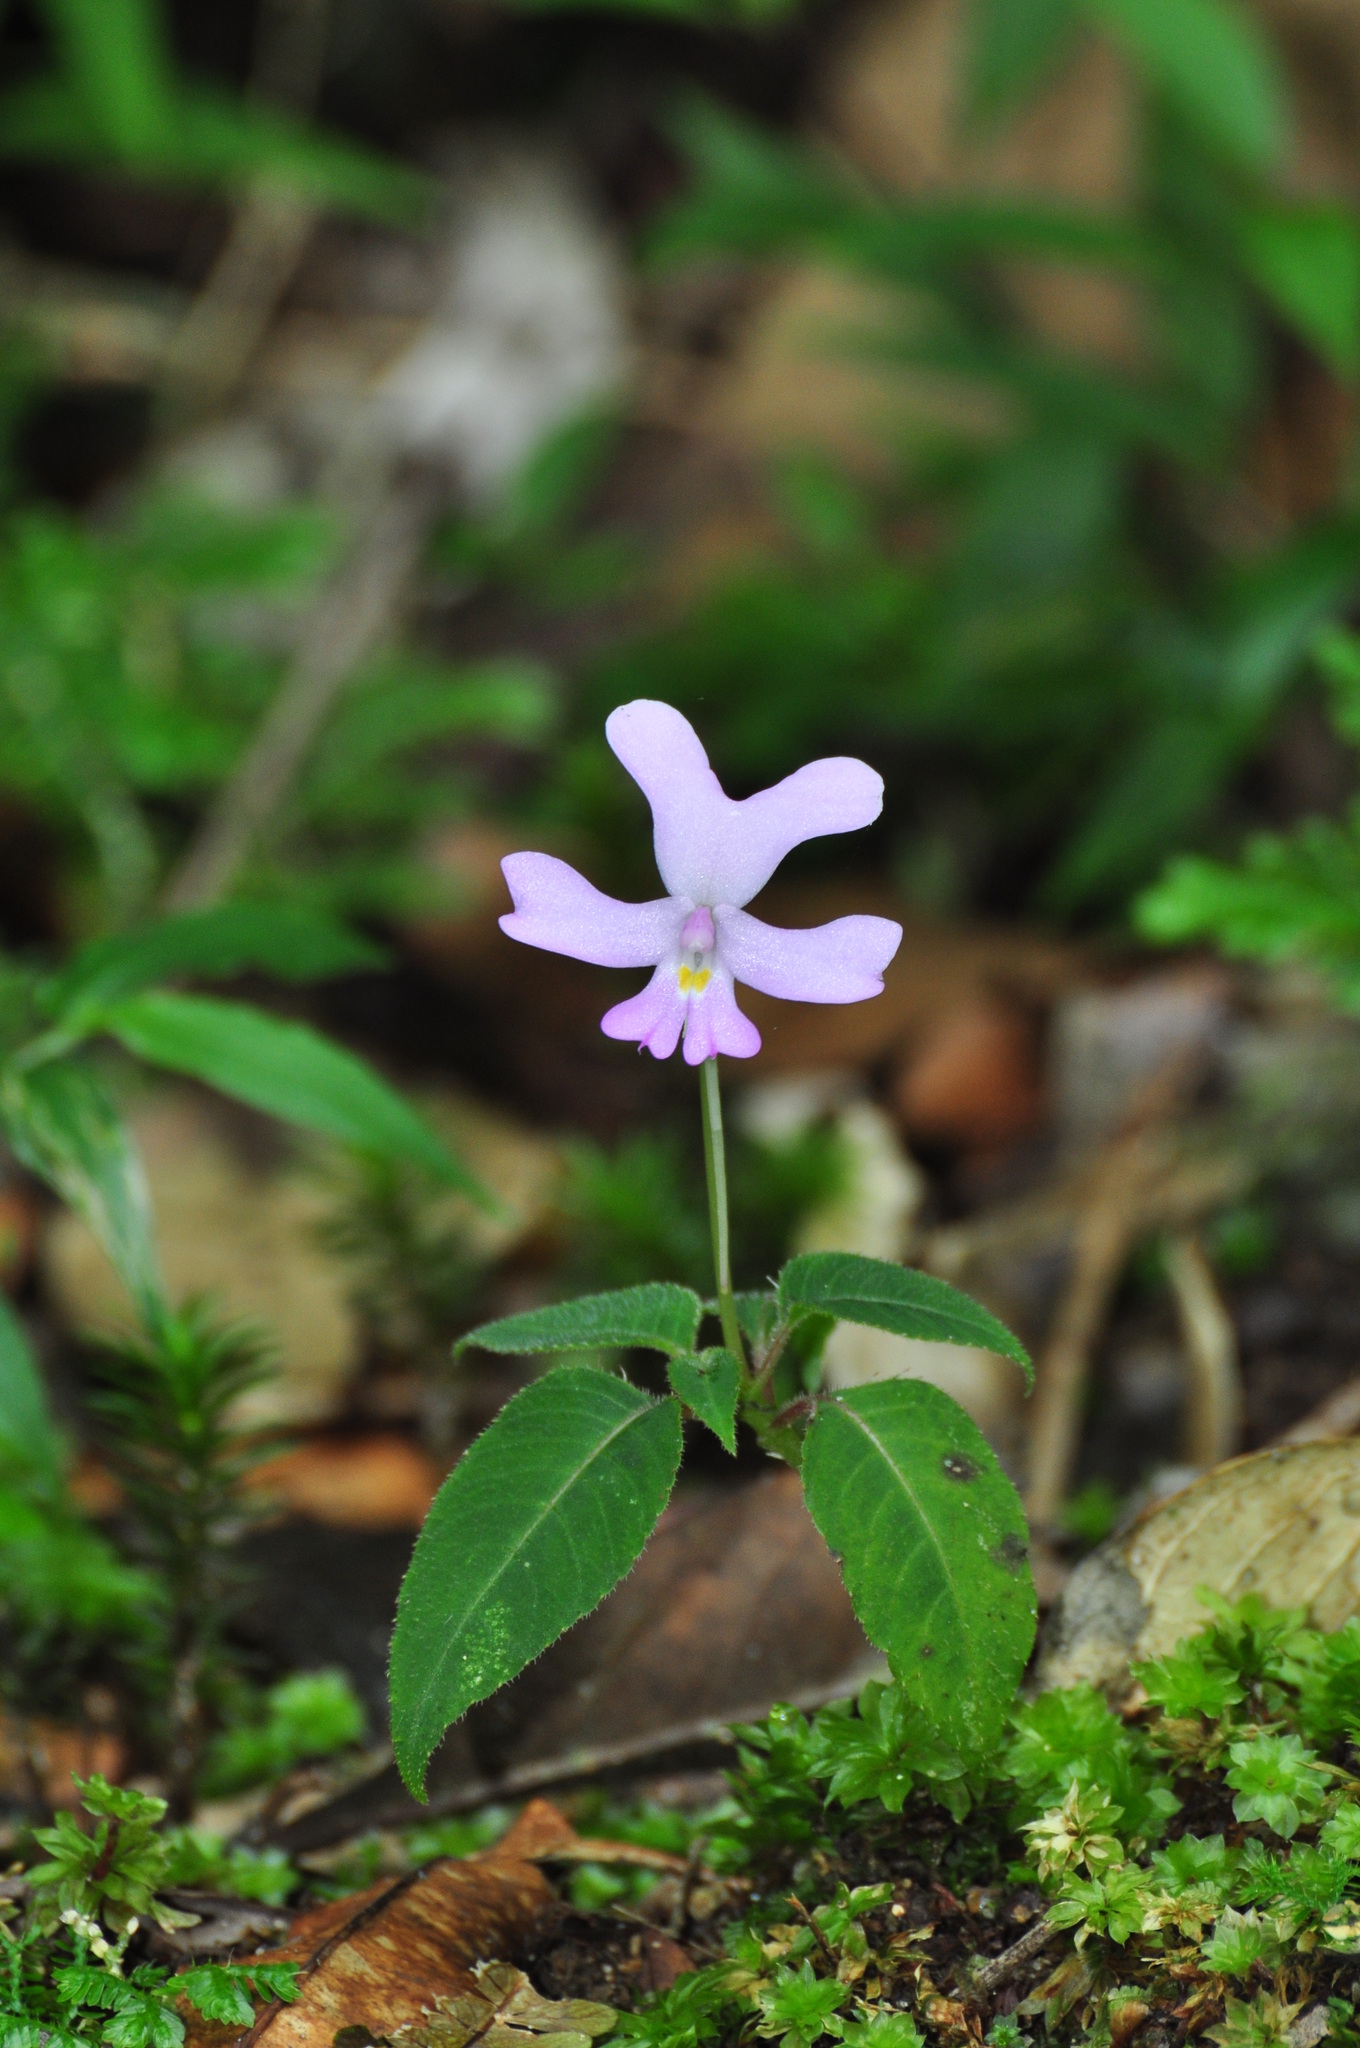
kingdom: Plantae
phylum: Tracheophyta
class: Magnoliopsida
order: Ericales
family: Balsaminaceae
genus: Impatiens
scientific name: Impatiens kinabaluensis
